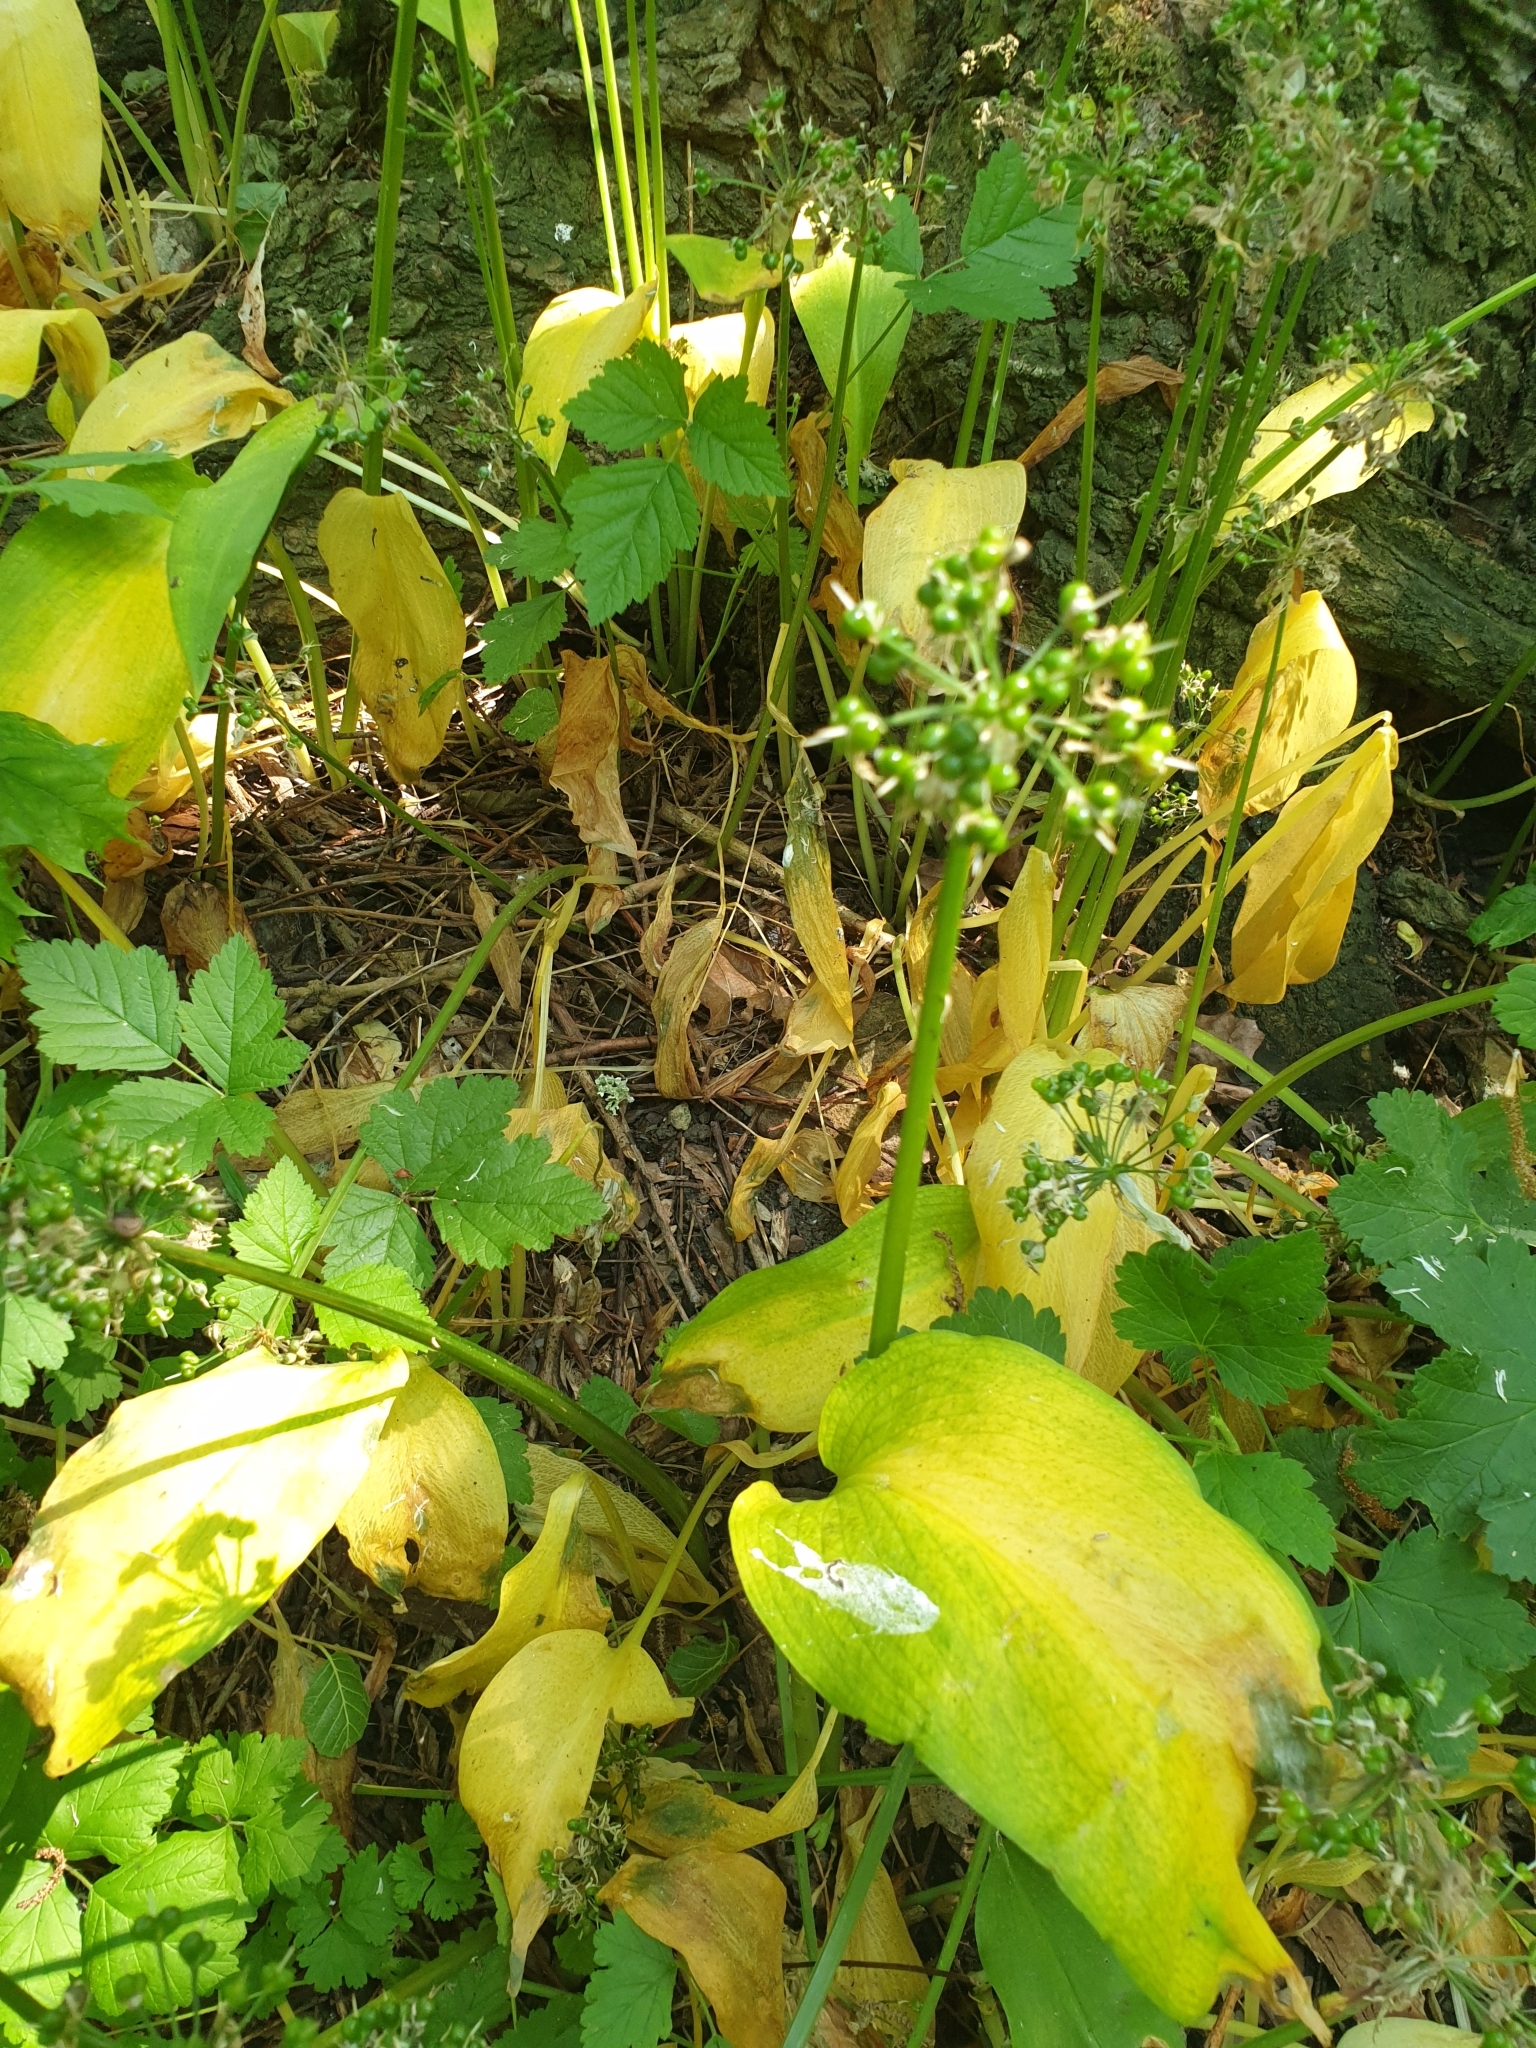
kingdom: Plantae
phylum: Tracheophyta
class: Liliopsida
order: Asparagales
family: Amaryllidaceae
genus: Allium
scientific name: Allium ursinum
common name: Ramsons
